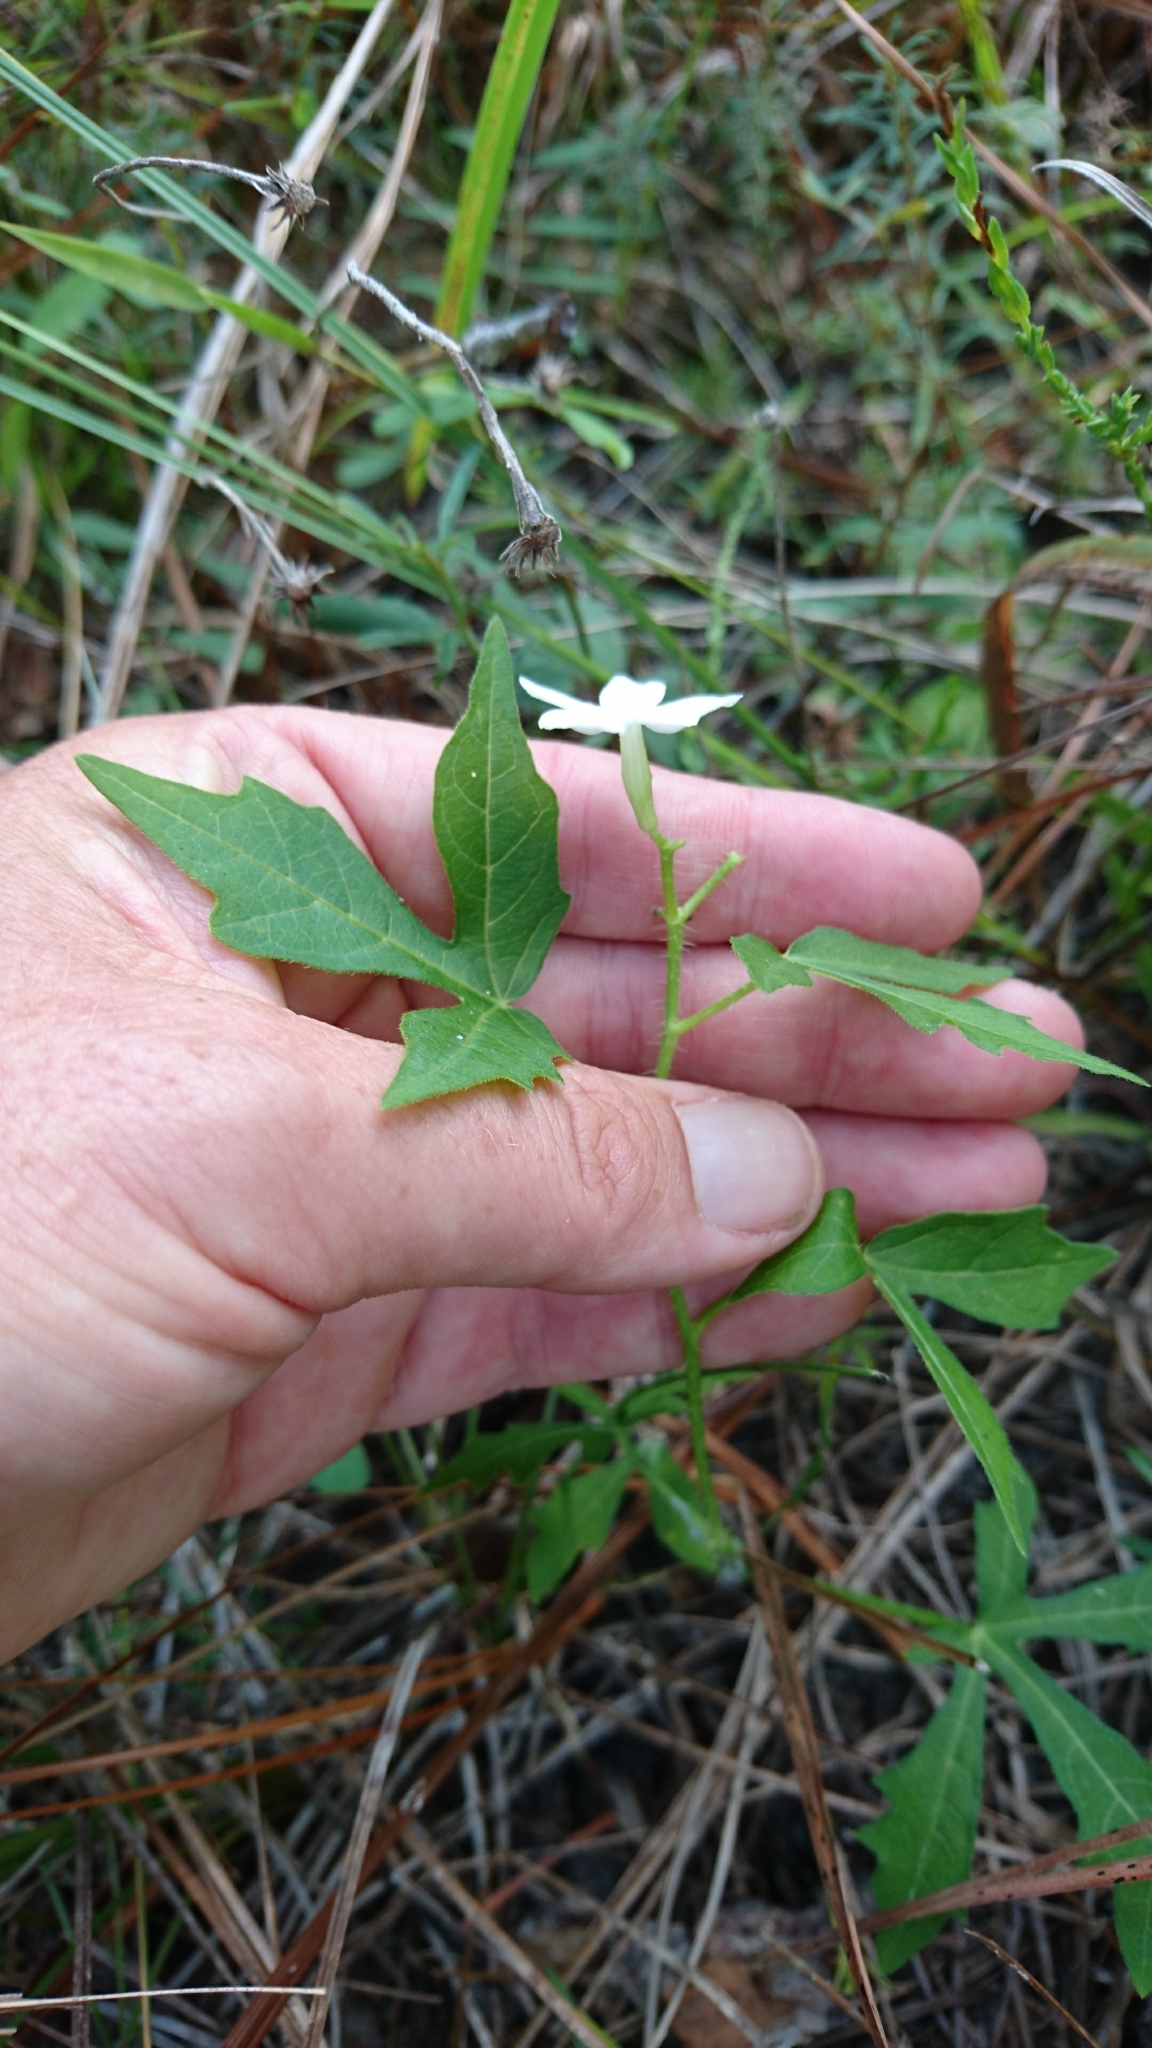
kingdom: Plantae
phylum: Tracheophyta
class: Magnoliopsida
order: Malpighiales
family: Euphorbiaceae
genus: Cnidoscolus
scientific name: Cnidoscolus stimulosus
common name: Bull-nettle
